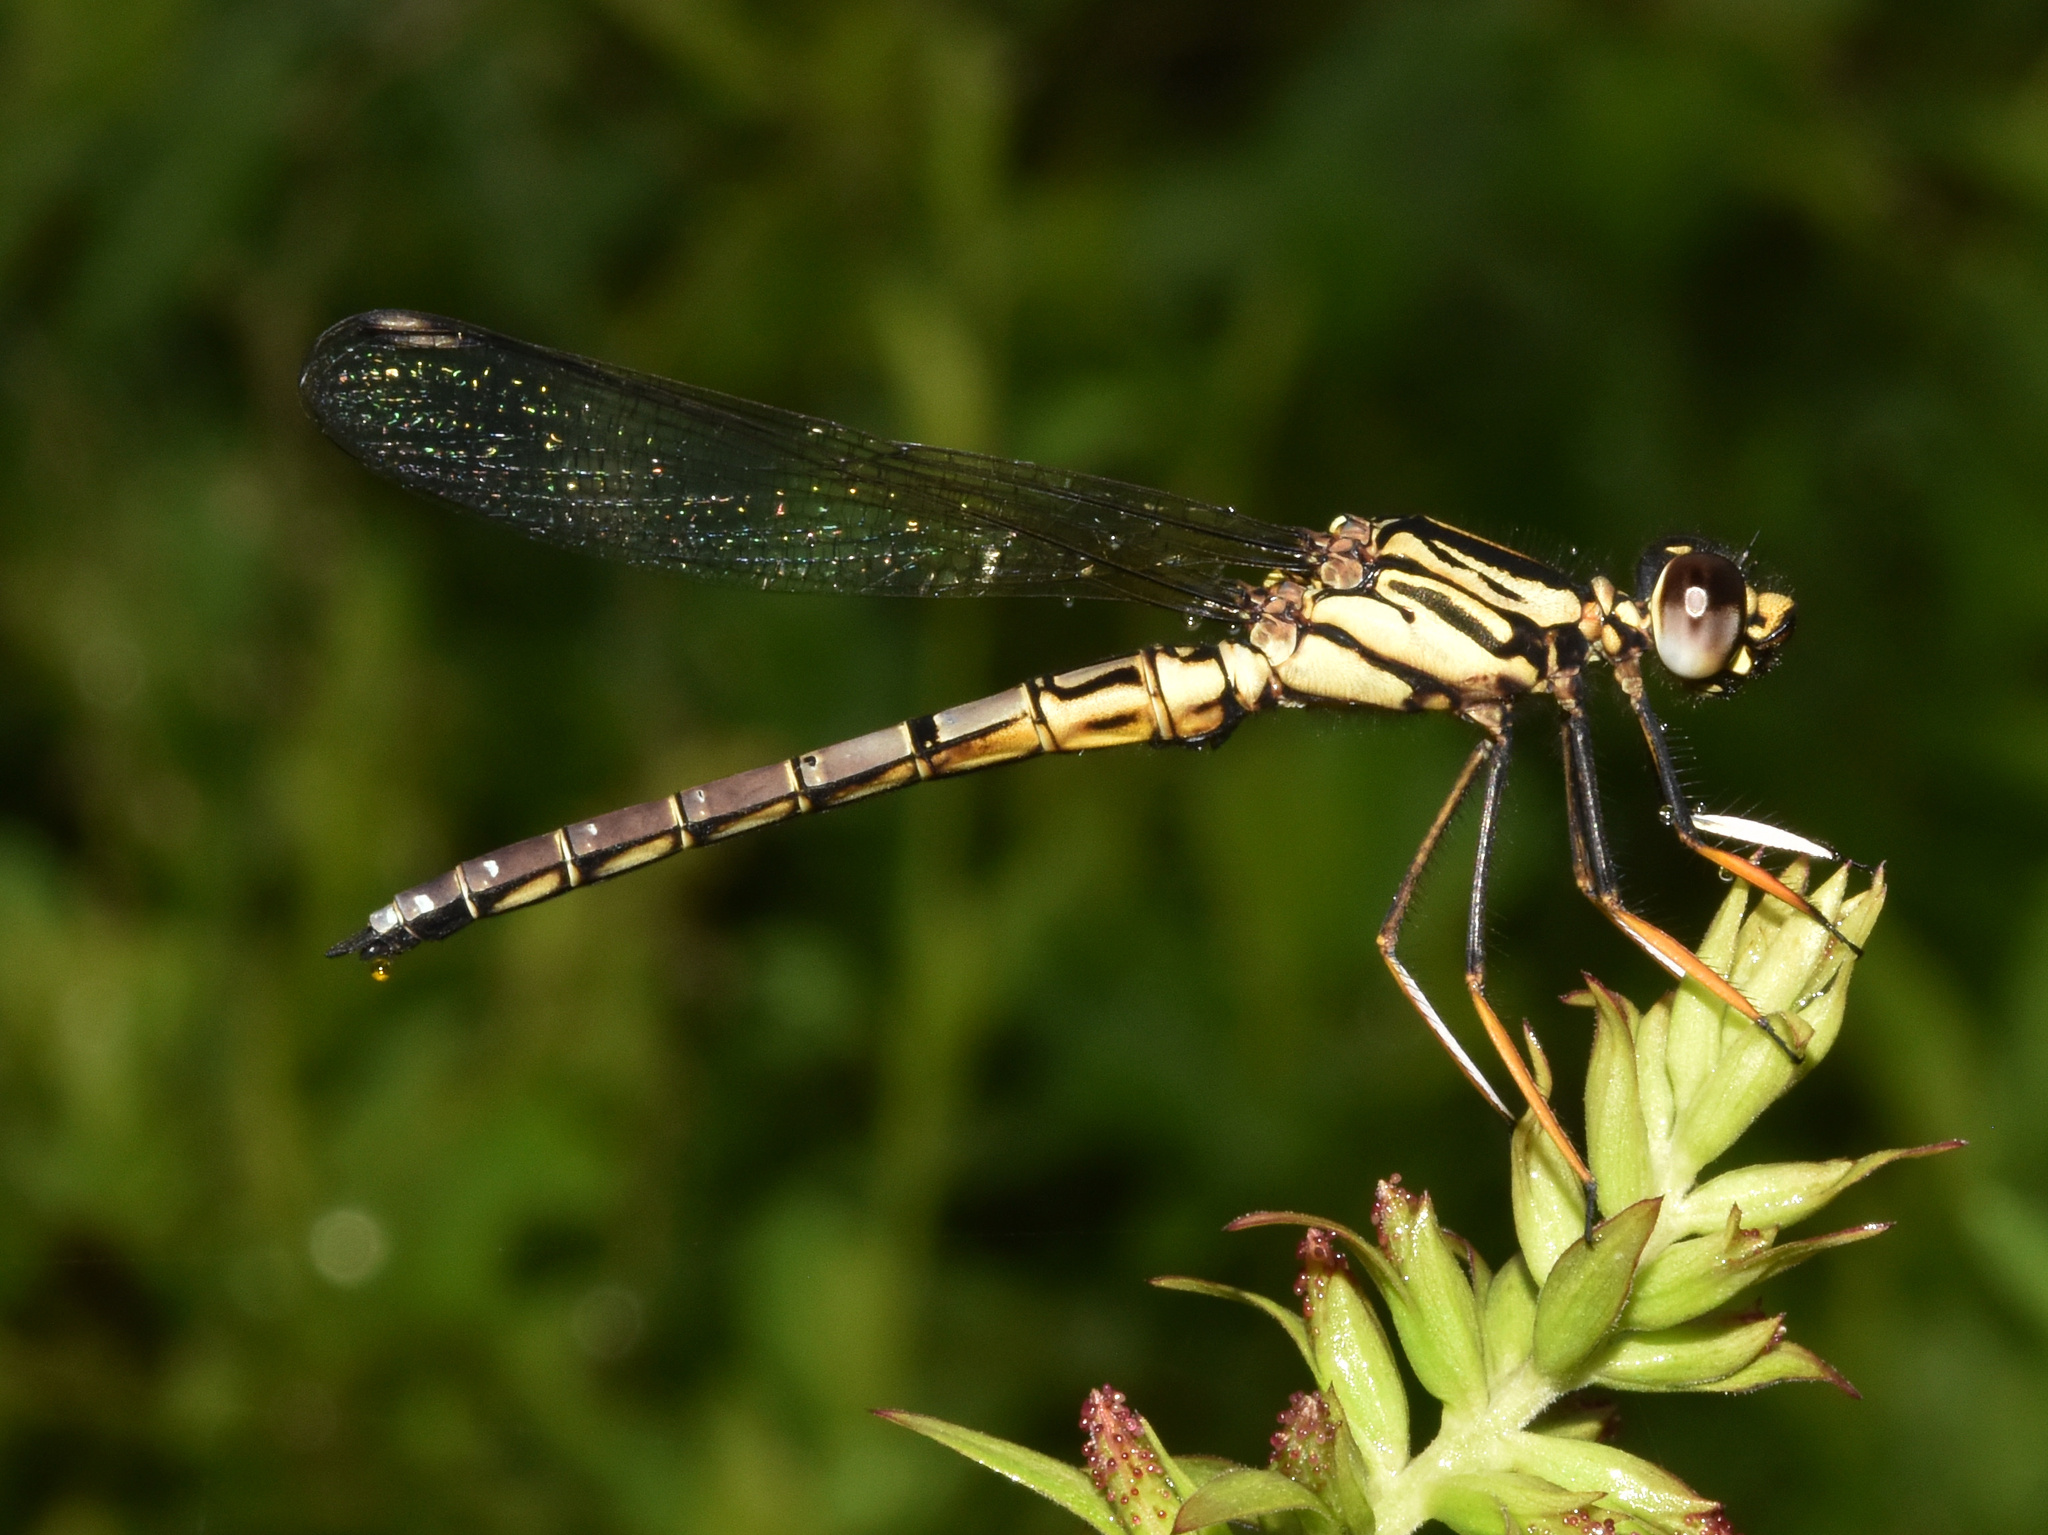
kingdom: Animalia
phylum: Arthropoda
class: Insecta
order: Odonata
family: Chlorocyphidae
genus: Platycypha
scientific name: Platycypha caligata
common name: Dancing jewel
